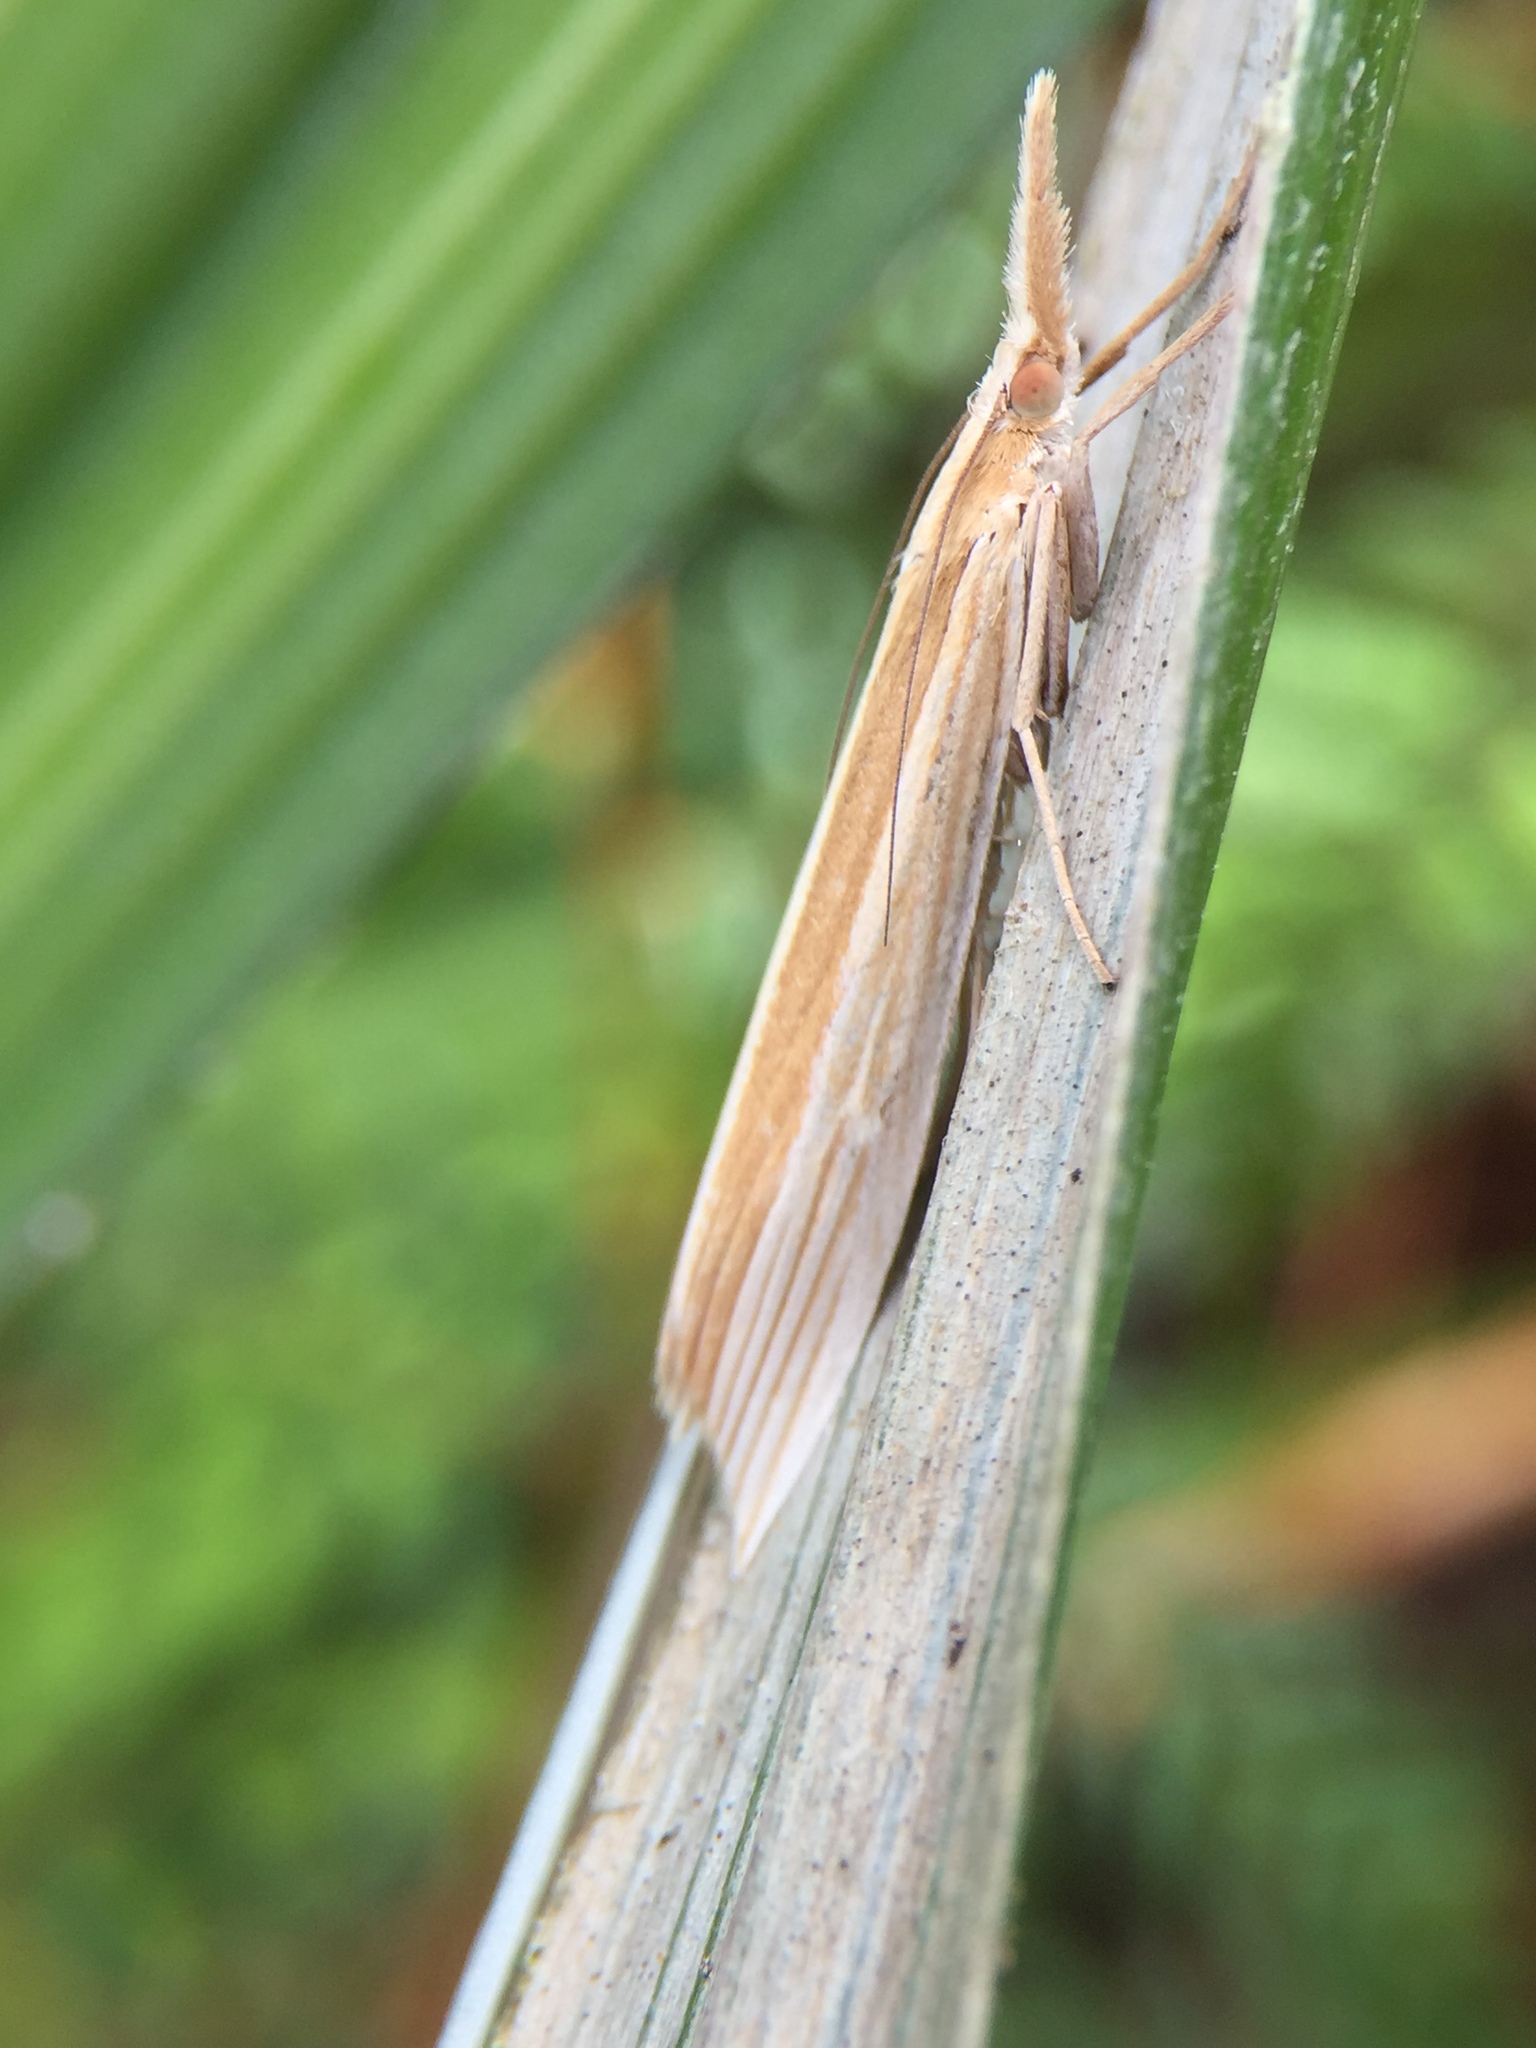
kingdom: Animalia
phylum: Arthropoda
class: Insecta
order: Lepidoptera
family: Crambidae
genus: Orocrambus
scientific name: Orocrambus angustipennis
